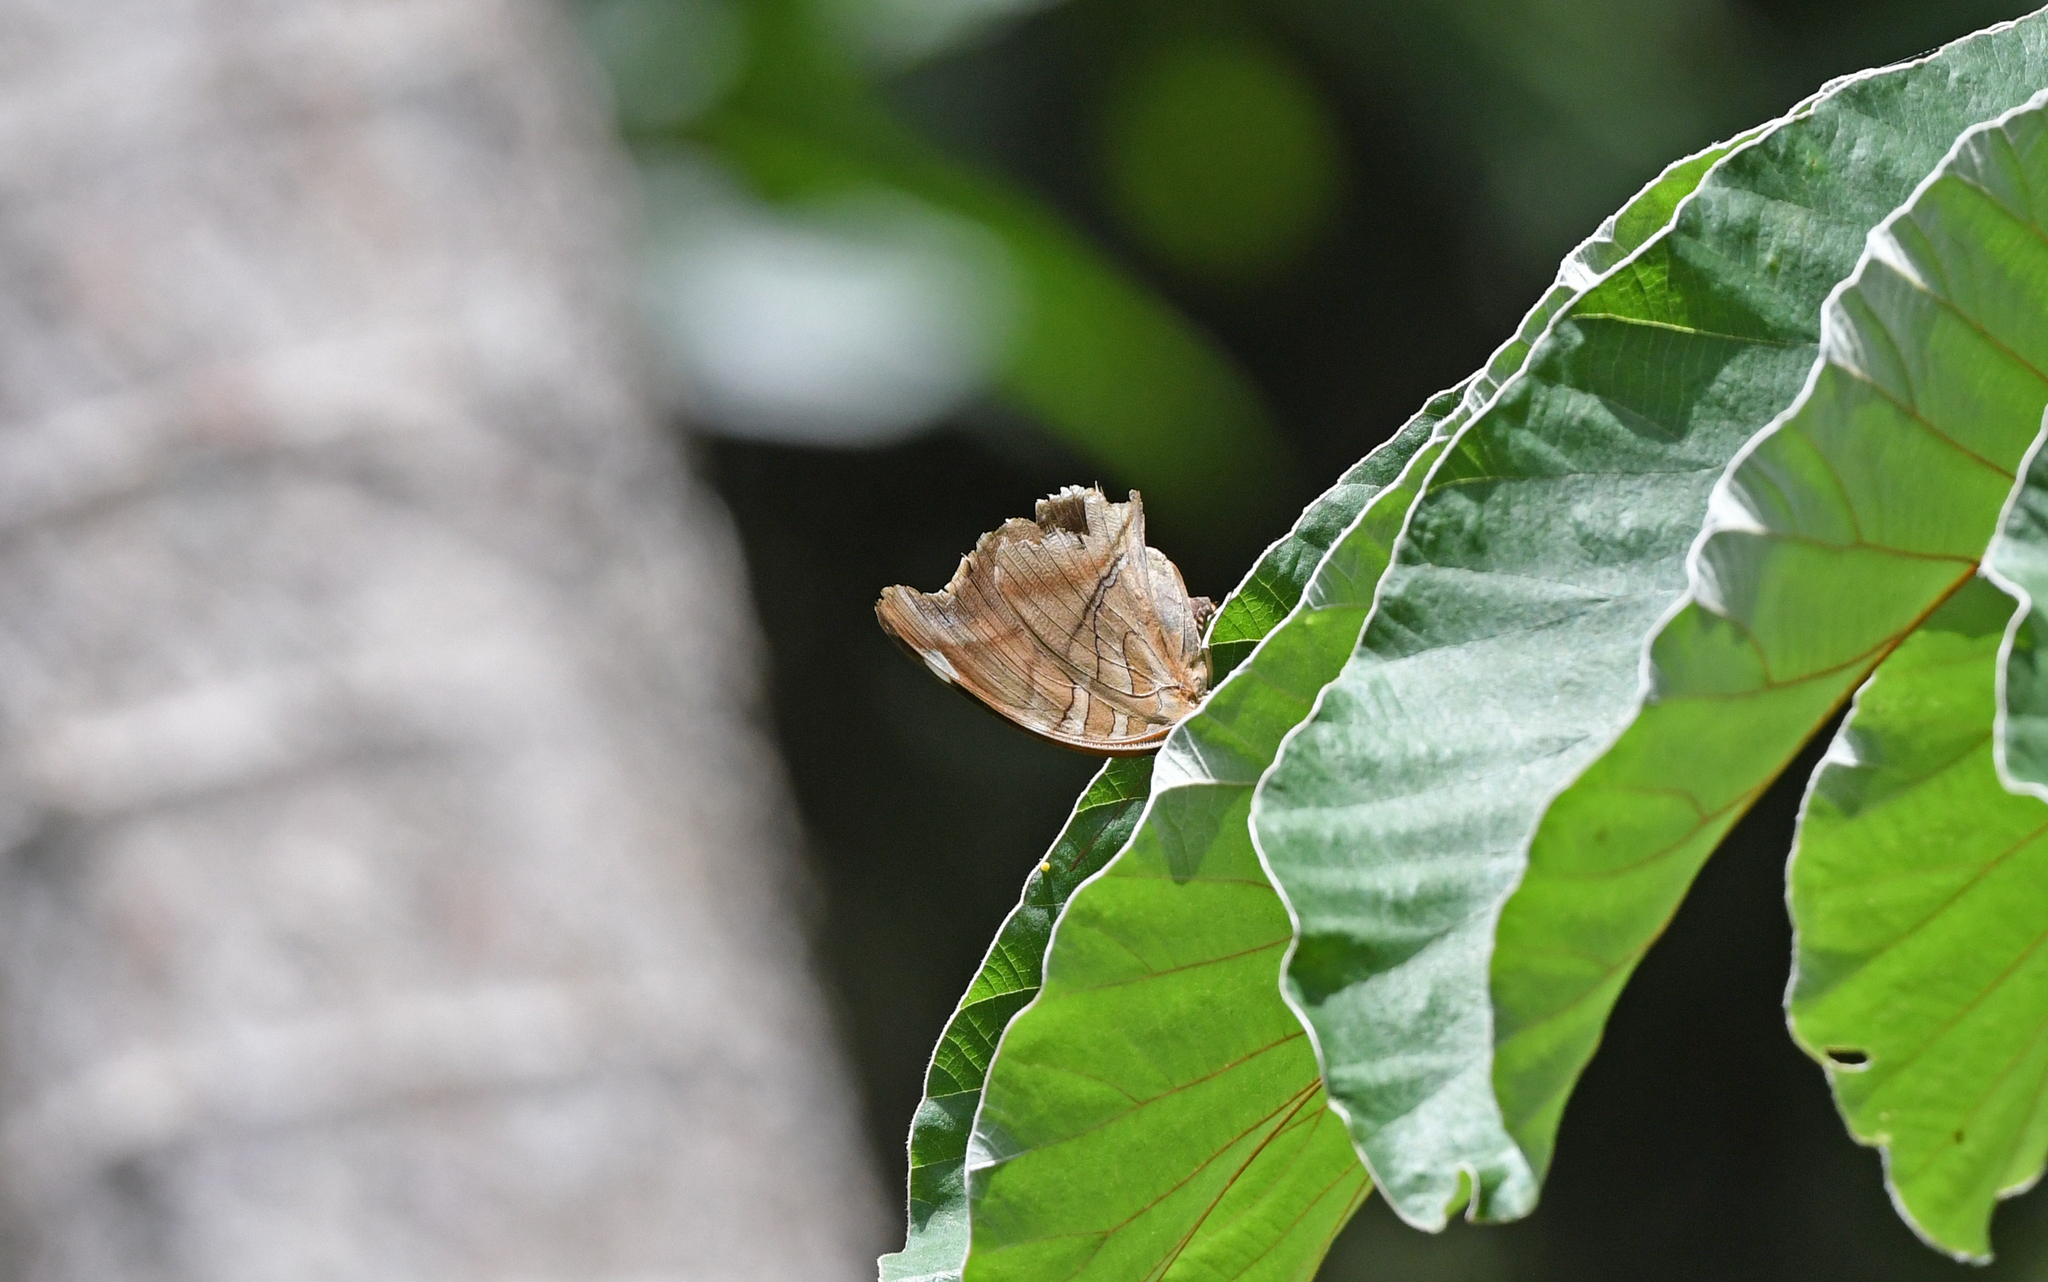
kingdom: Animalia
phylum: Arthropoda
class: Insecta
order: Lepidoptera
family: Nymphalidae
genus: Historis
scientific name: Historis odius
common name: Orion cecropian
